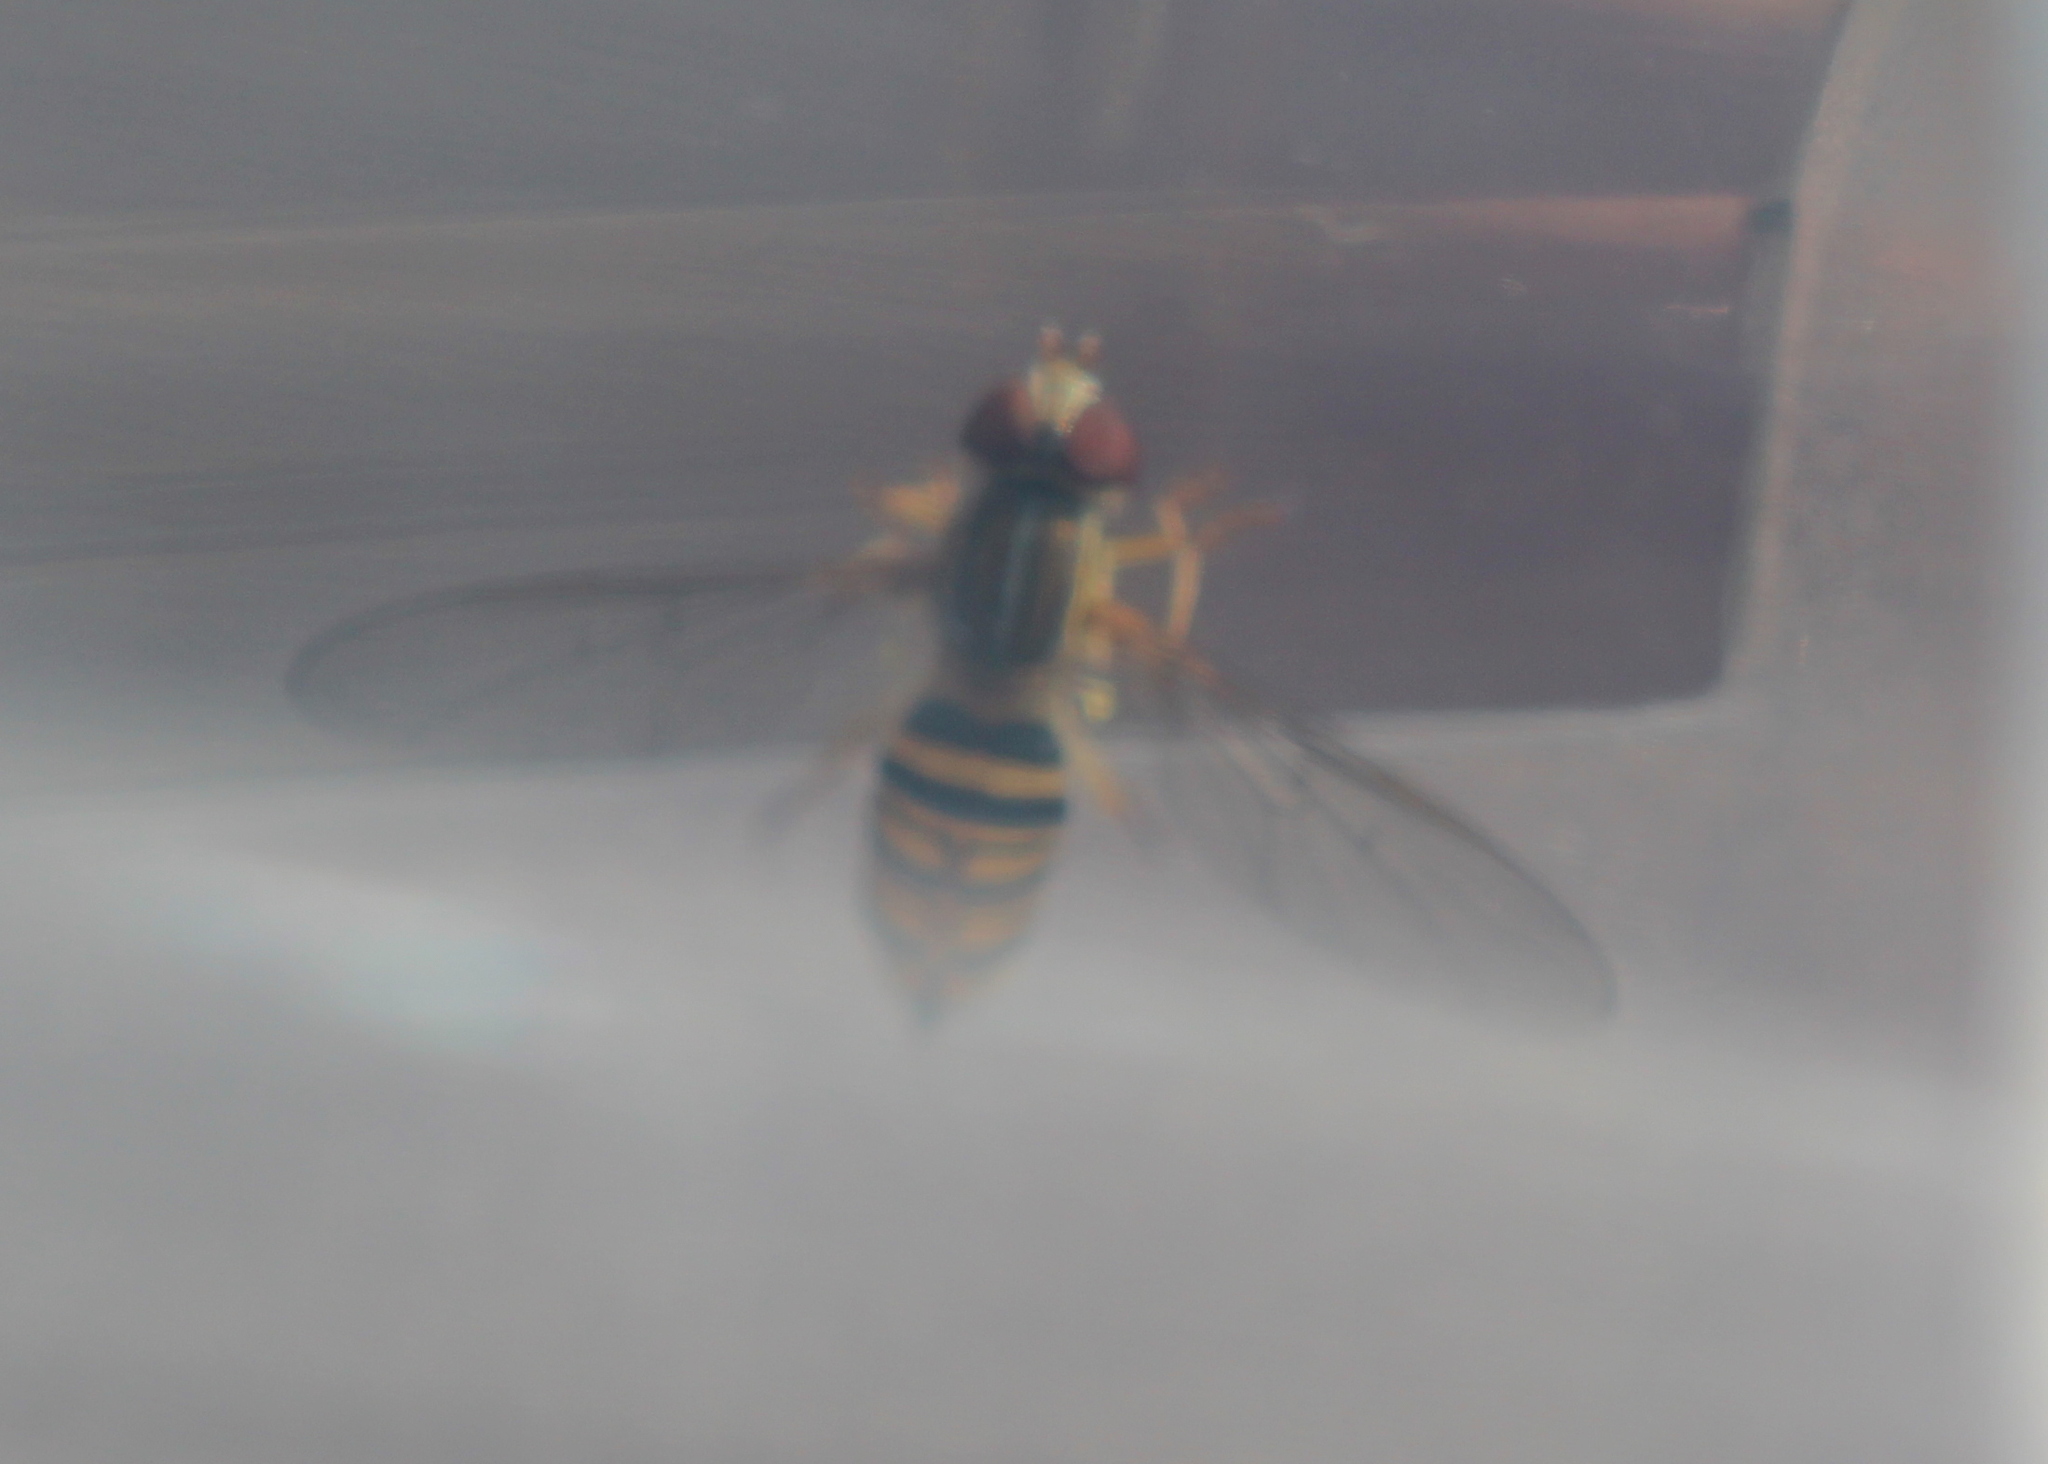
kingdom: Animalia
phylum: Arthropoda
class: Insecta
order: Diptera
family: Syrphidae
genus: Toxomerus
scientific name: Toxomerus politus
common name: Maize calligrapher
